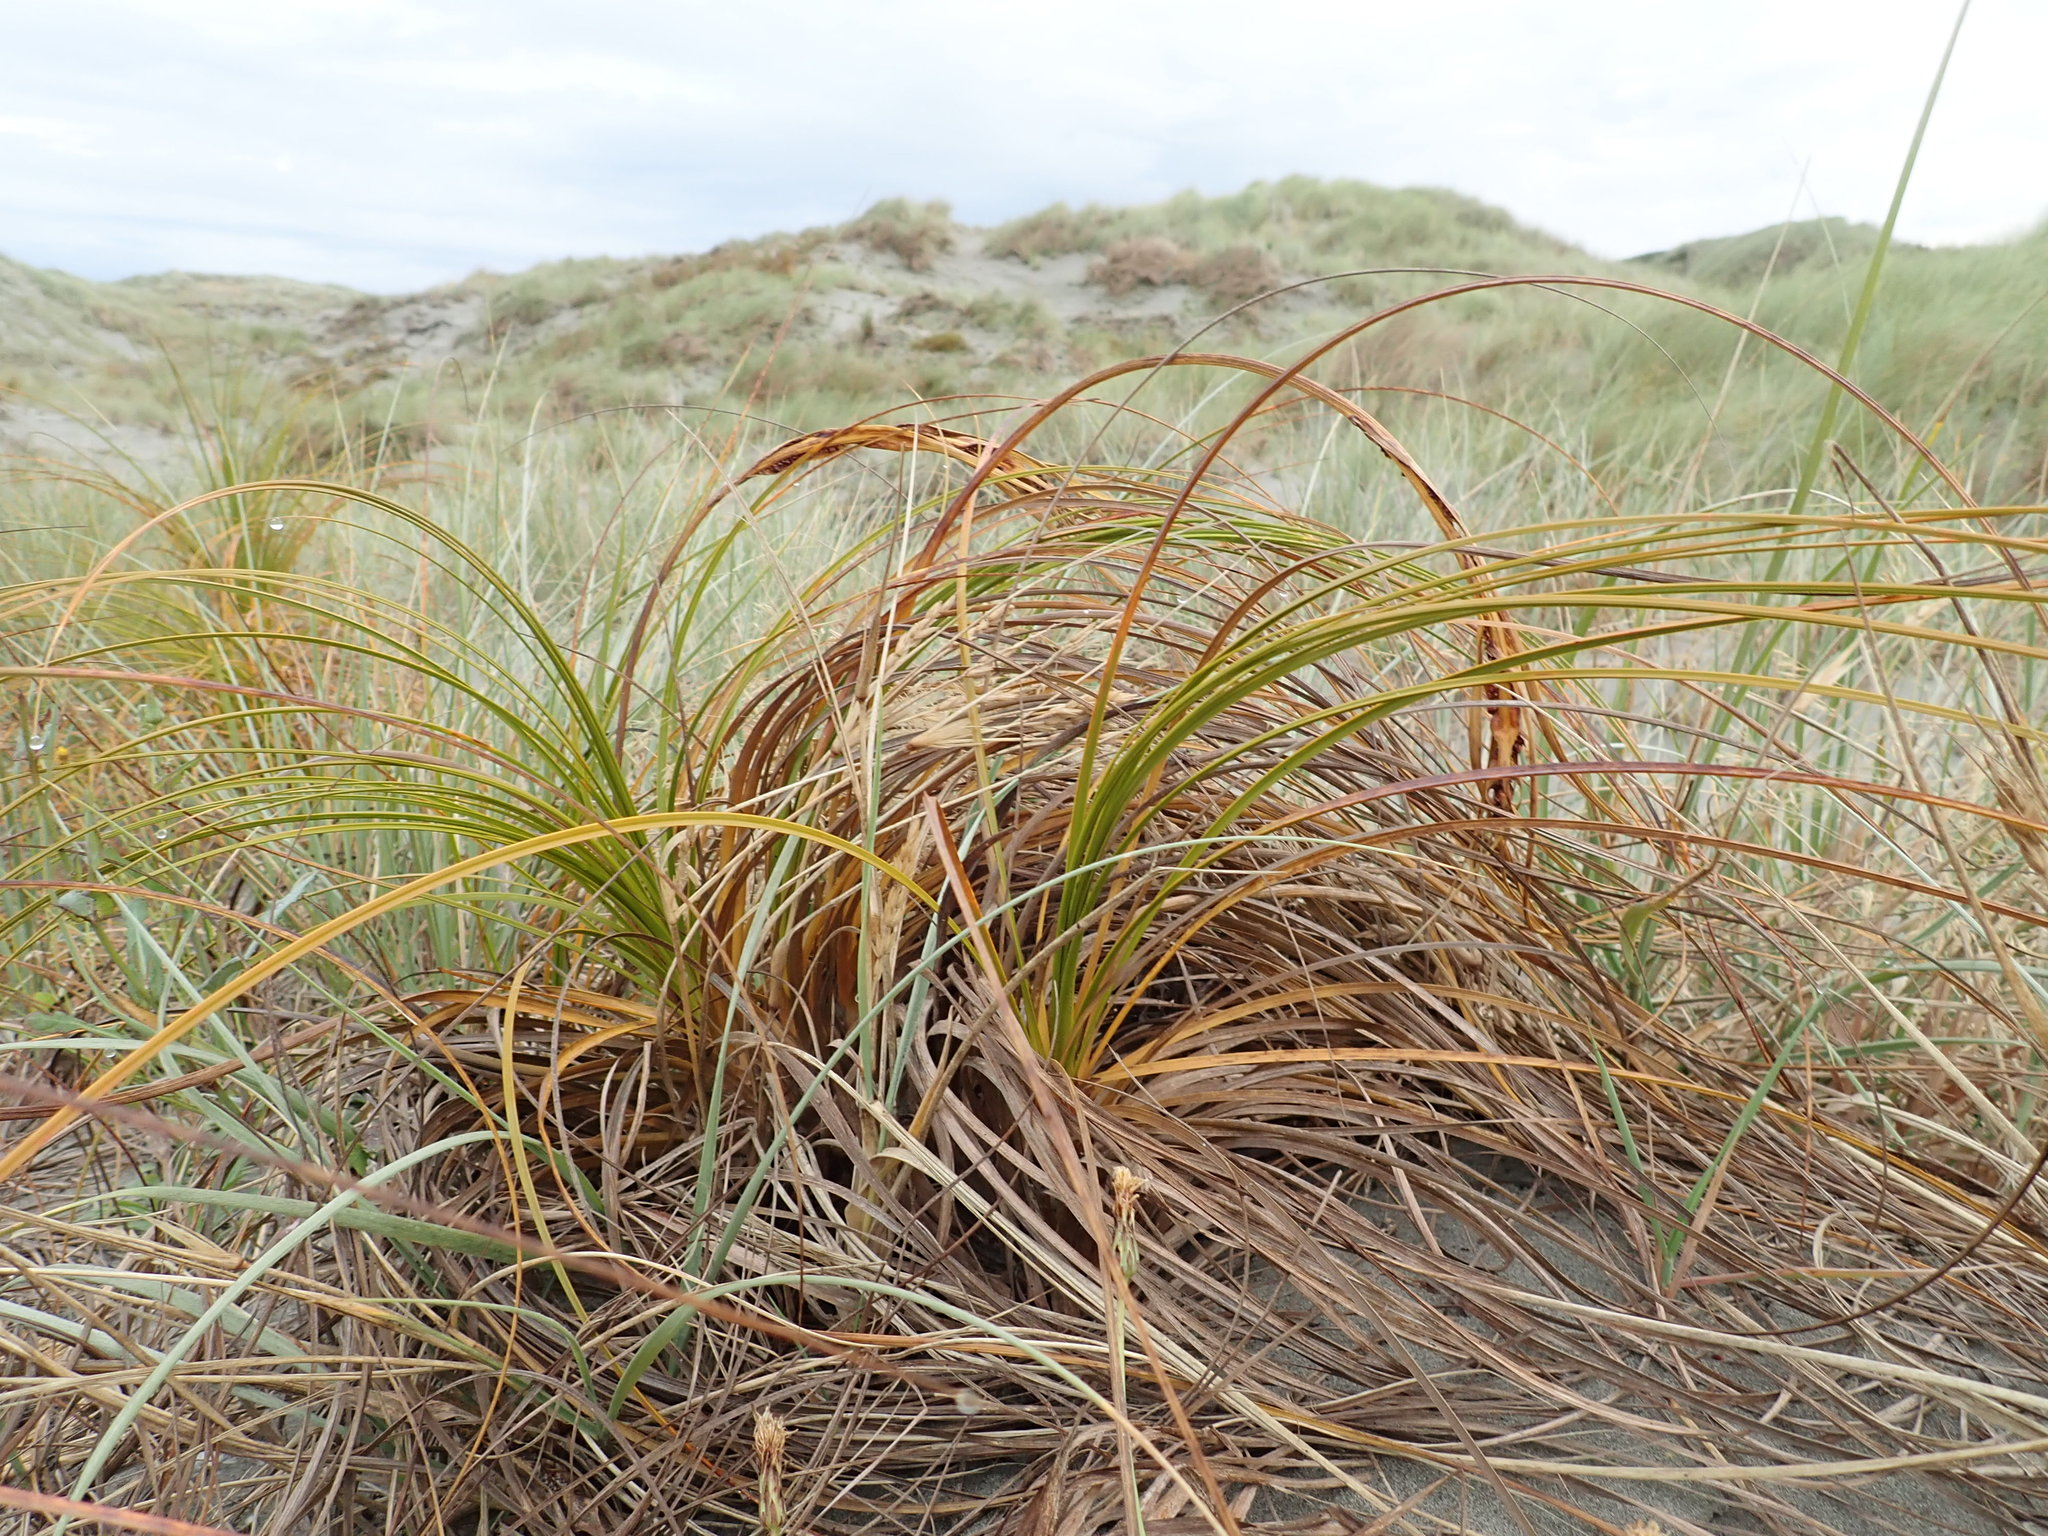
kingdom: Plantae
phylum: Tracheophyta
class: Liliopsida
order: Poales
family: Cyperaceae
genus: Ficinia
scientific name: Ficinia spiralis
